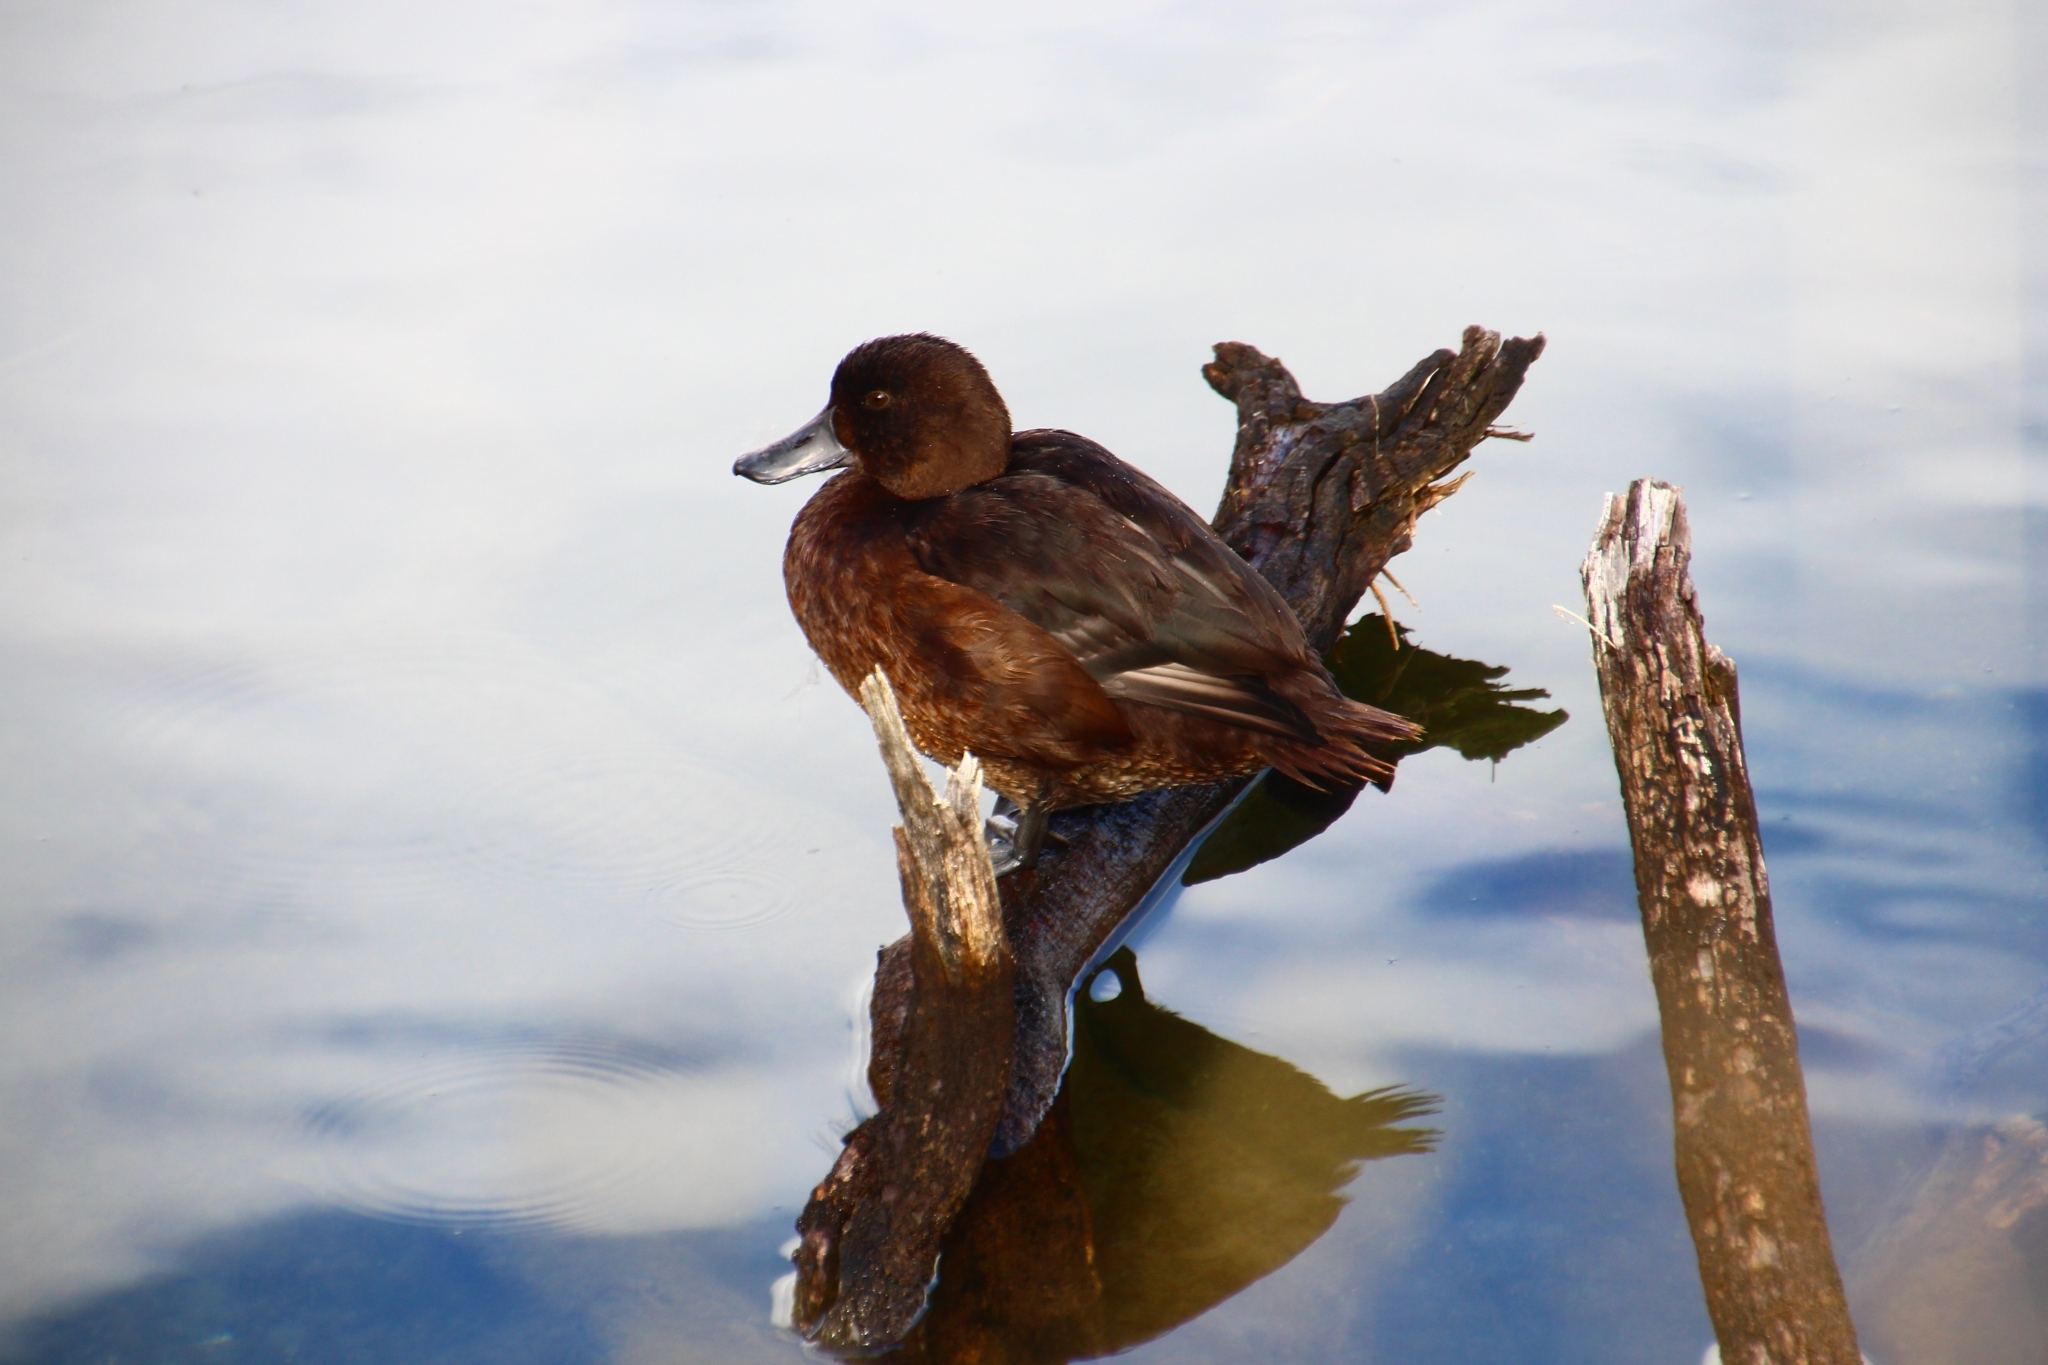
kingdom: Animalia
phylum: Chordata
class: Aves
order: Anseriformes
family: Anatidae
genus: Aythya
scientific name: Aythya novaeseelandiae
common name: New zealand scaup
